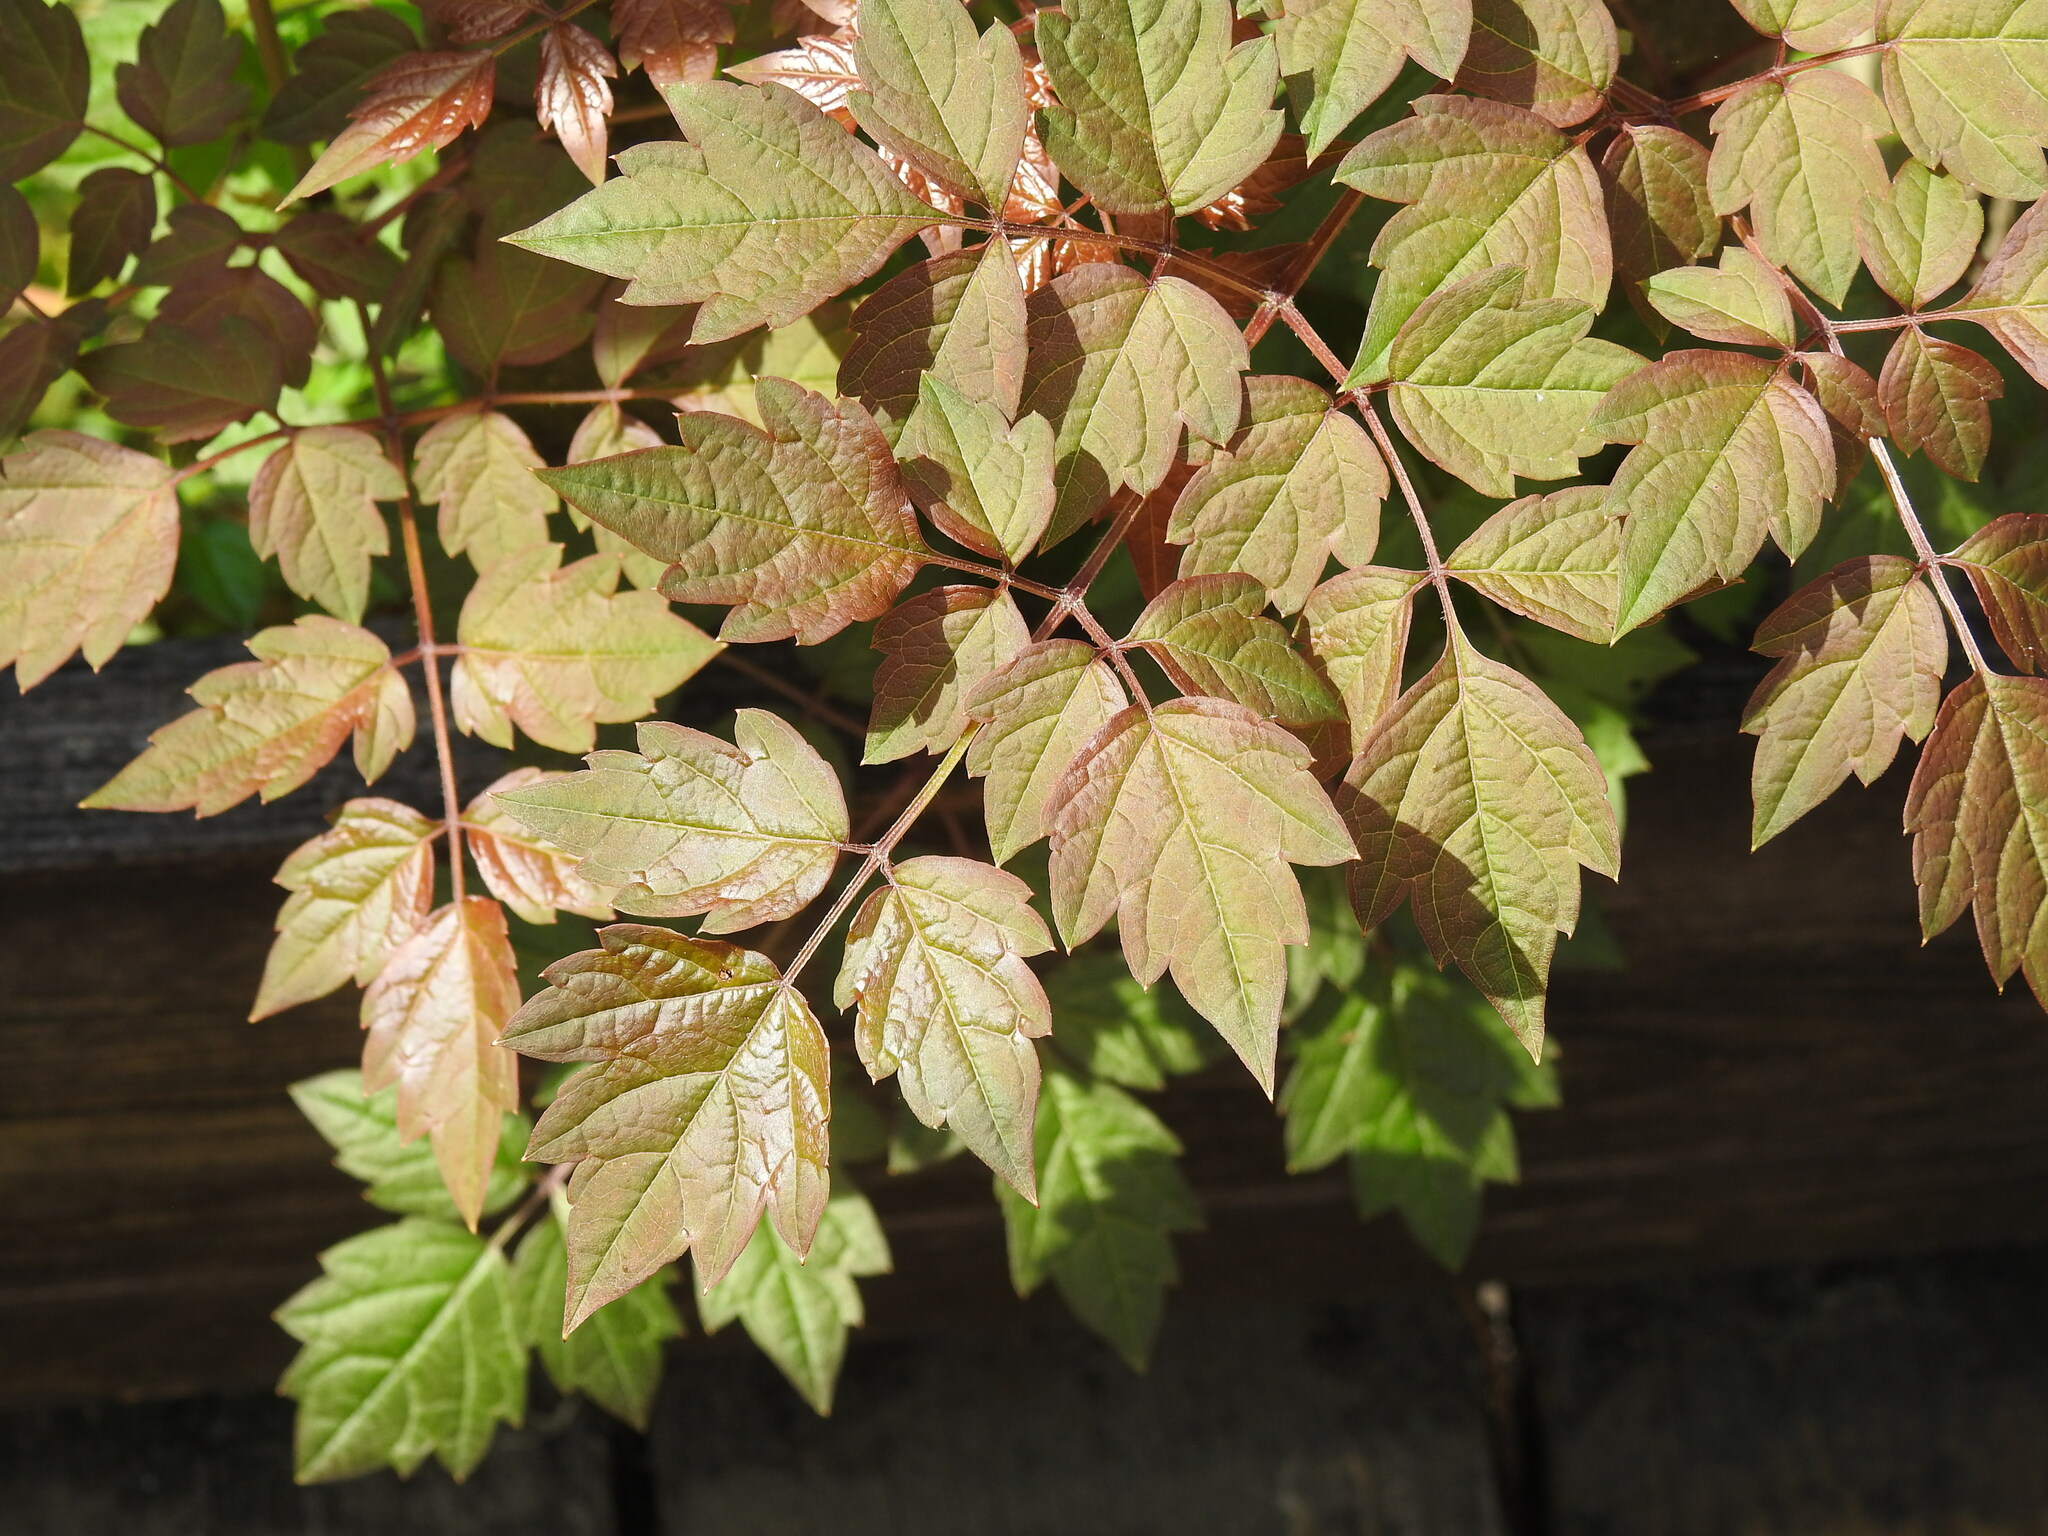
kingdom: Plantae
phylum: Tracheophyta
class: Magnoliopsida
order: Vitales
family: Vitaceae
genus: Nekemias
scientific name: Nekemias arborea
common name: Peppervine
